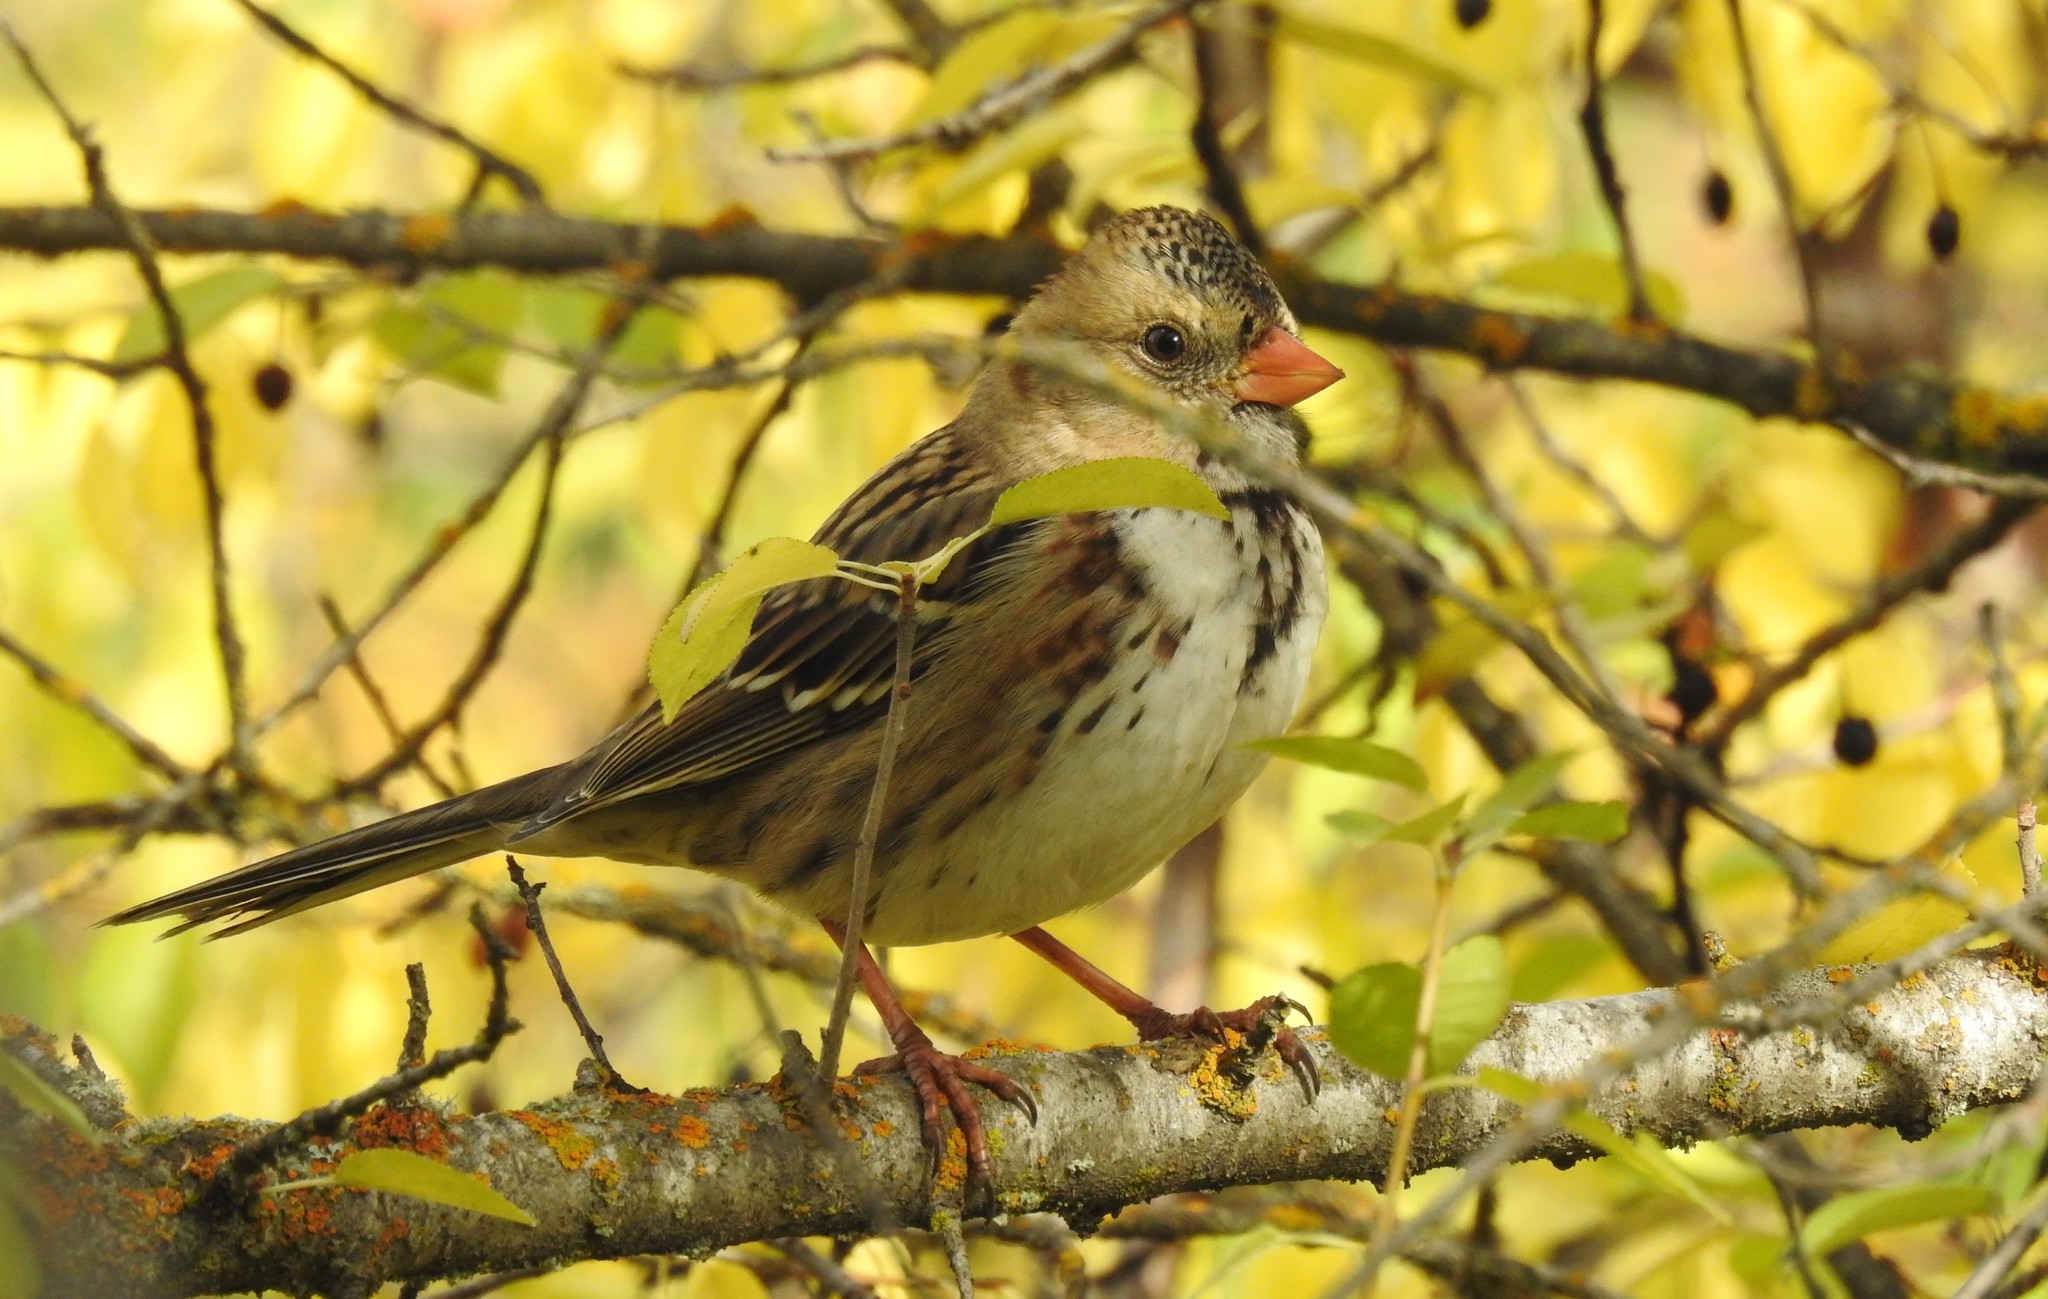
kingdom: Animalia
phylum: Chordata
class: Aves
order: Passeriformes
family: Passerellidae
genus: Zonotrichia
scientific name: Zonotrichia querula
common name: Harris's sparrow
